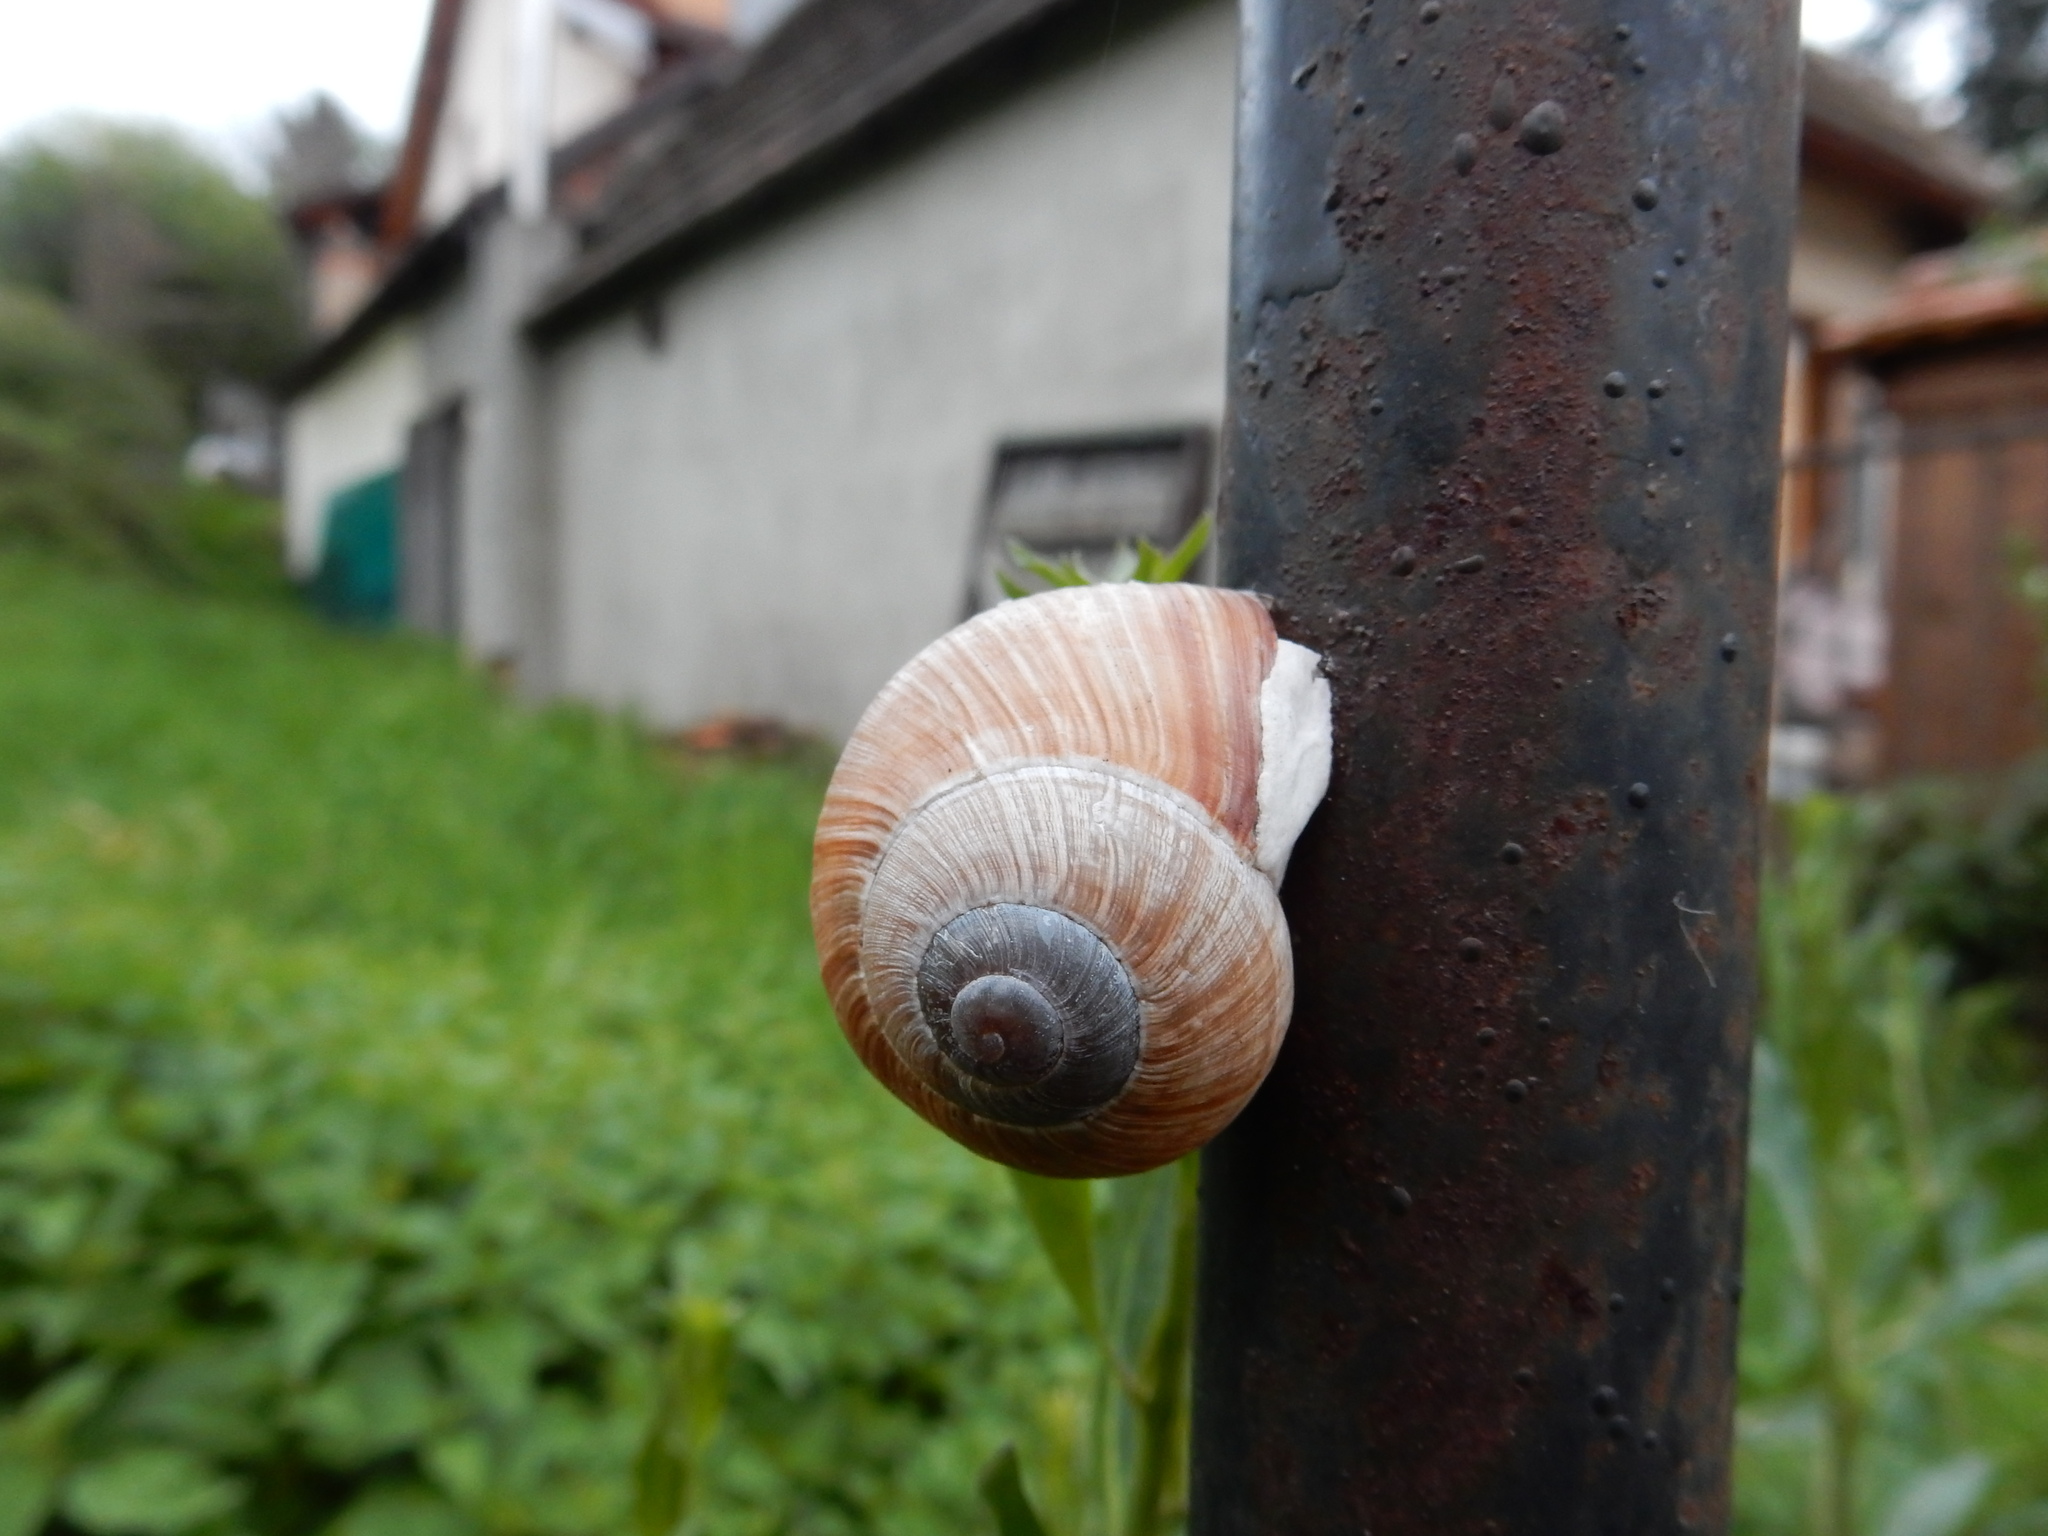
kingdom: Animalia
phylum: Mollusca
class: Gastropoda
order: Stylommatophora
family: Helicidae
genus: Helix
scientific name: Helix pomatia
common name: Roman snail
